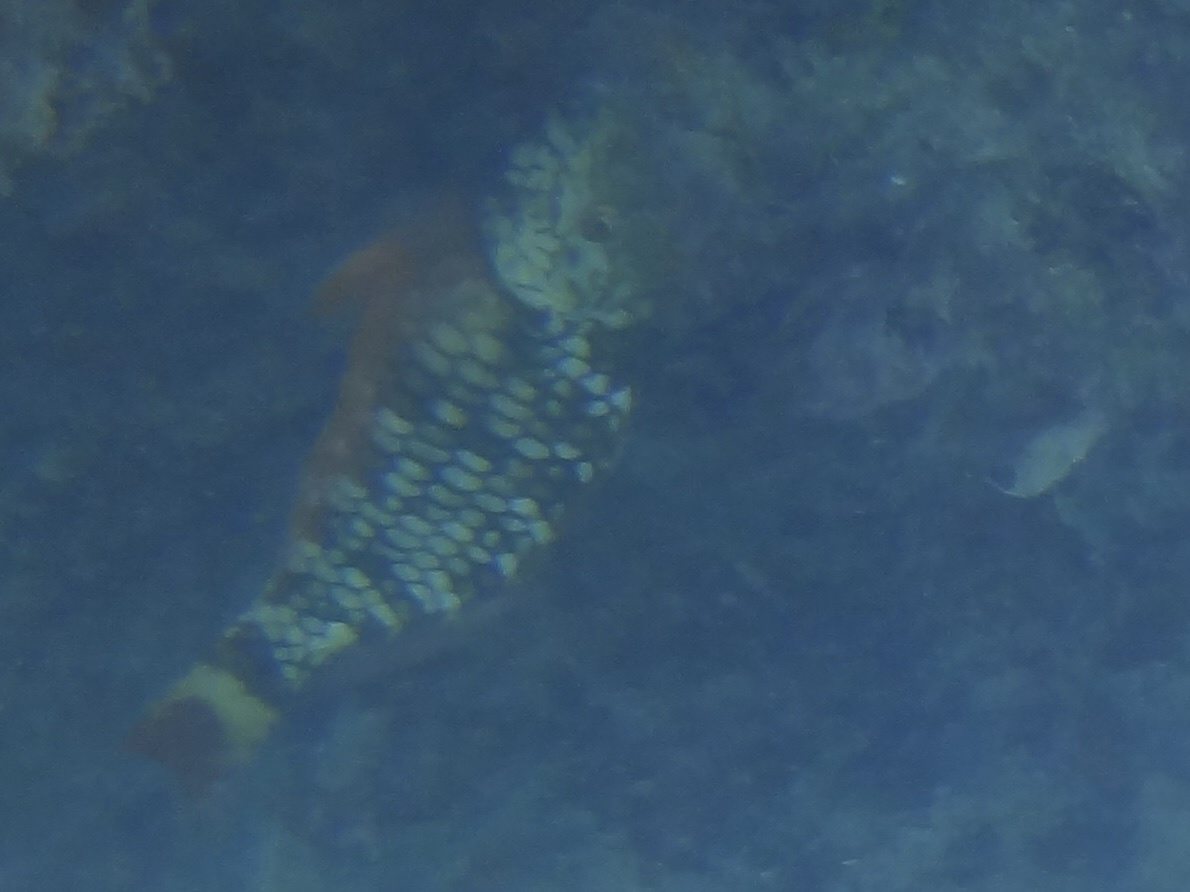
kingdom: Animalia
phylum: Chordata
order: Perciformes
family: Scaridae
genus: Sparisoma
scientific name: Sparisoma viride
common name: Stoplight parrotfish
